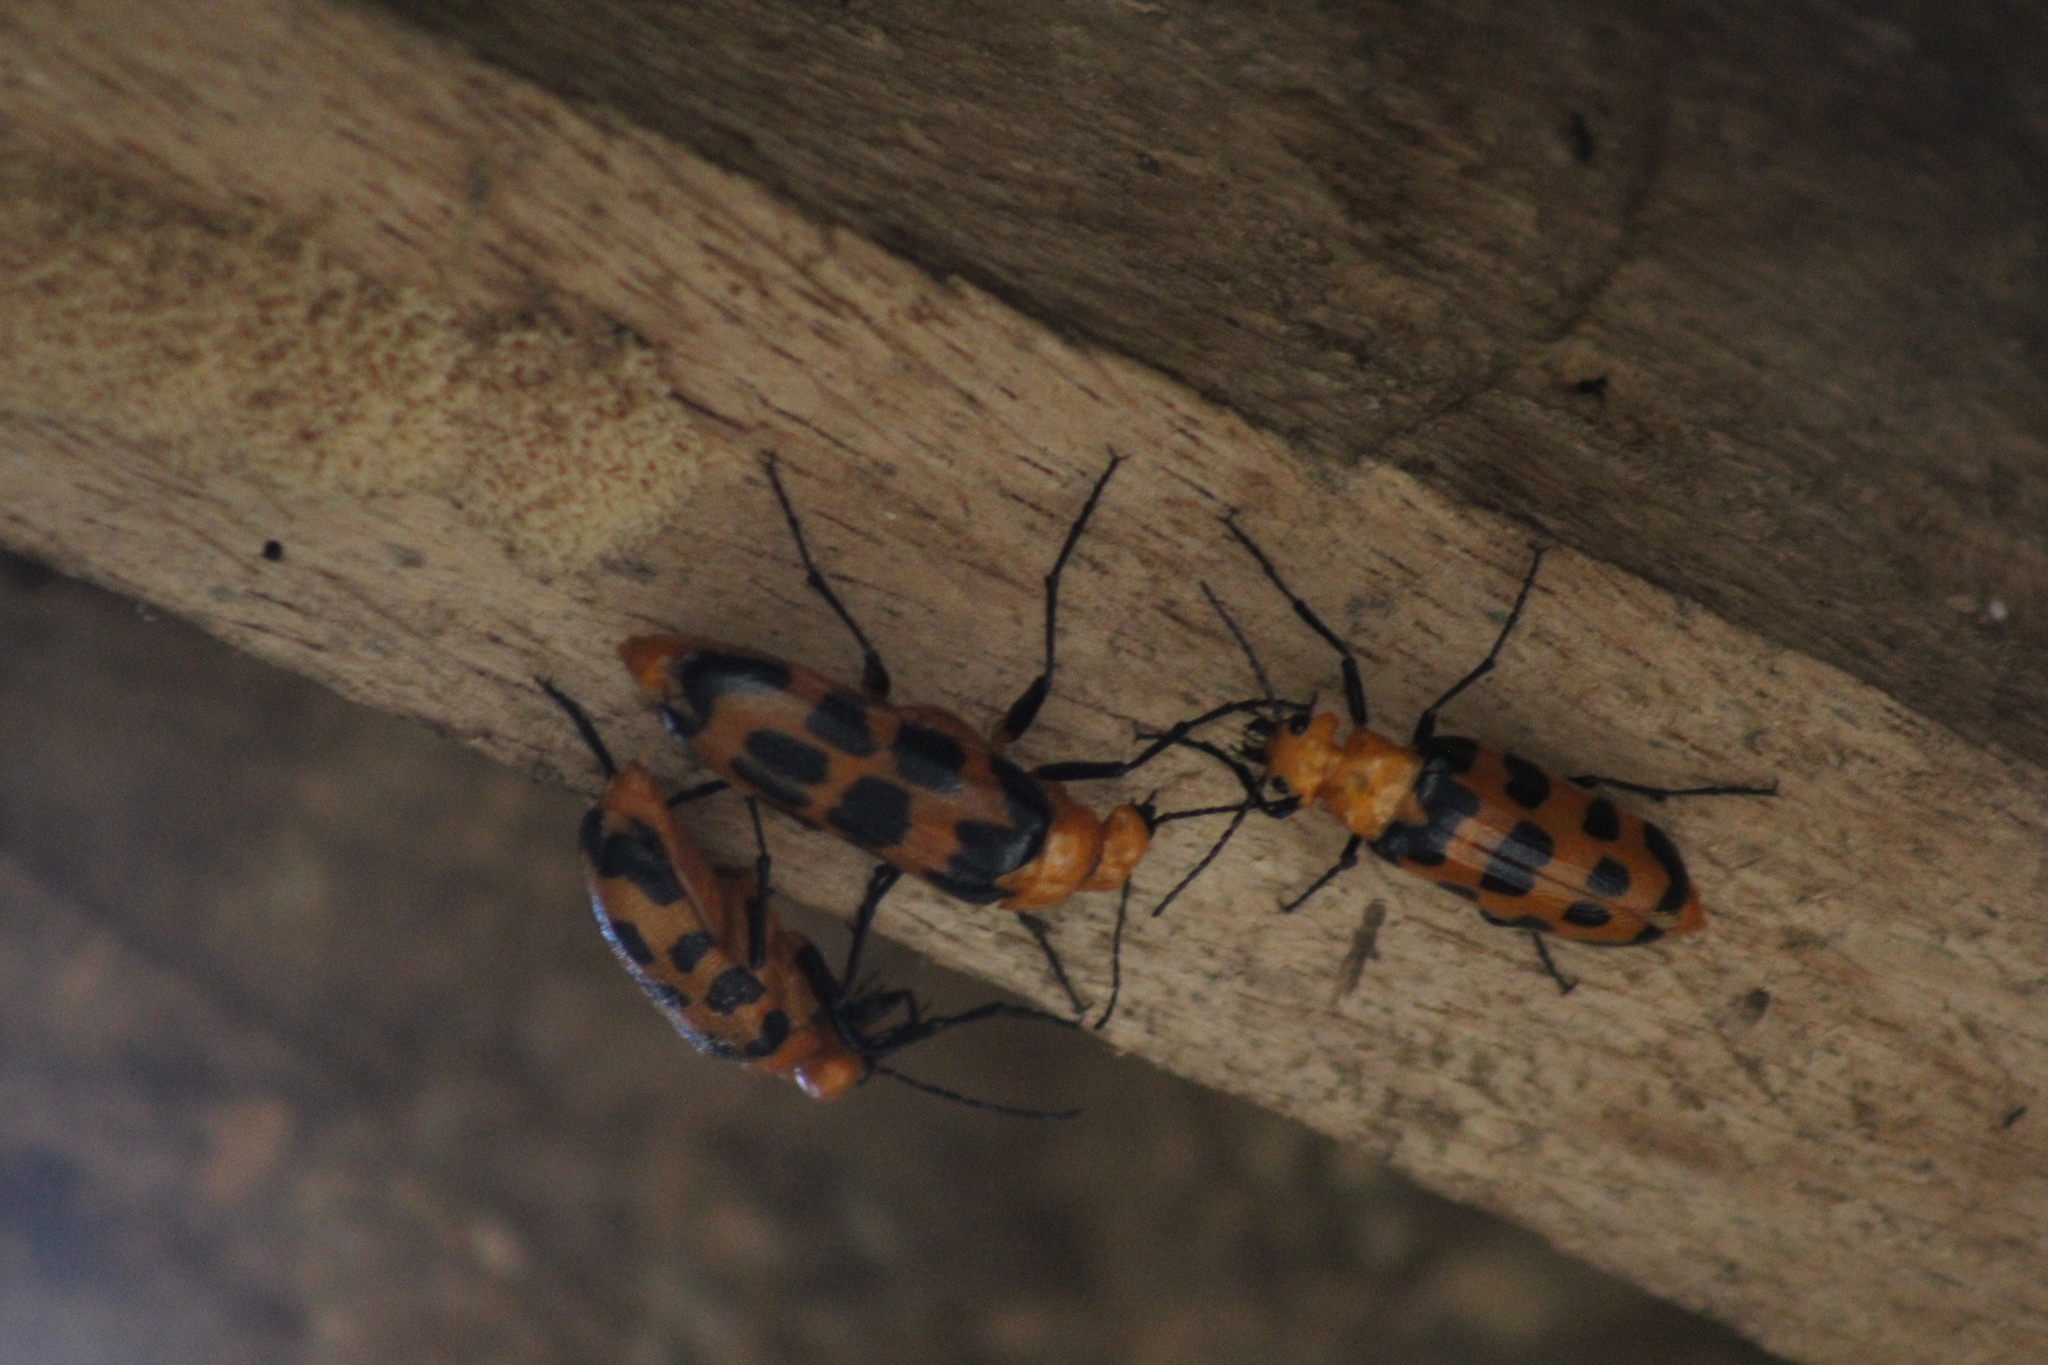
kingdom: Animalia
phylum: Arthropoda
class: Insecta
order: Coleoptera
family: Meloidae
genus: Cissites
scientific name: Cissites auriculata
